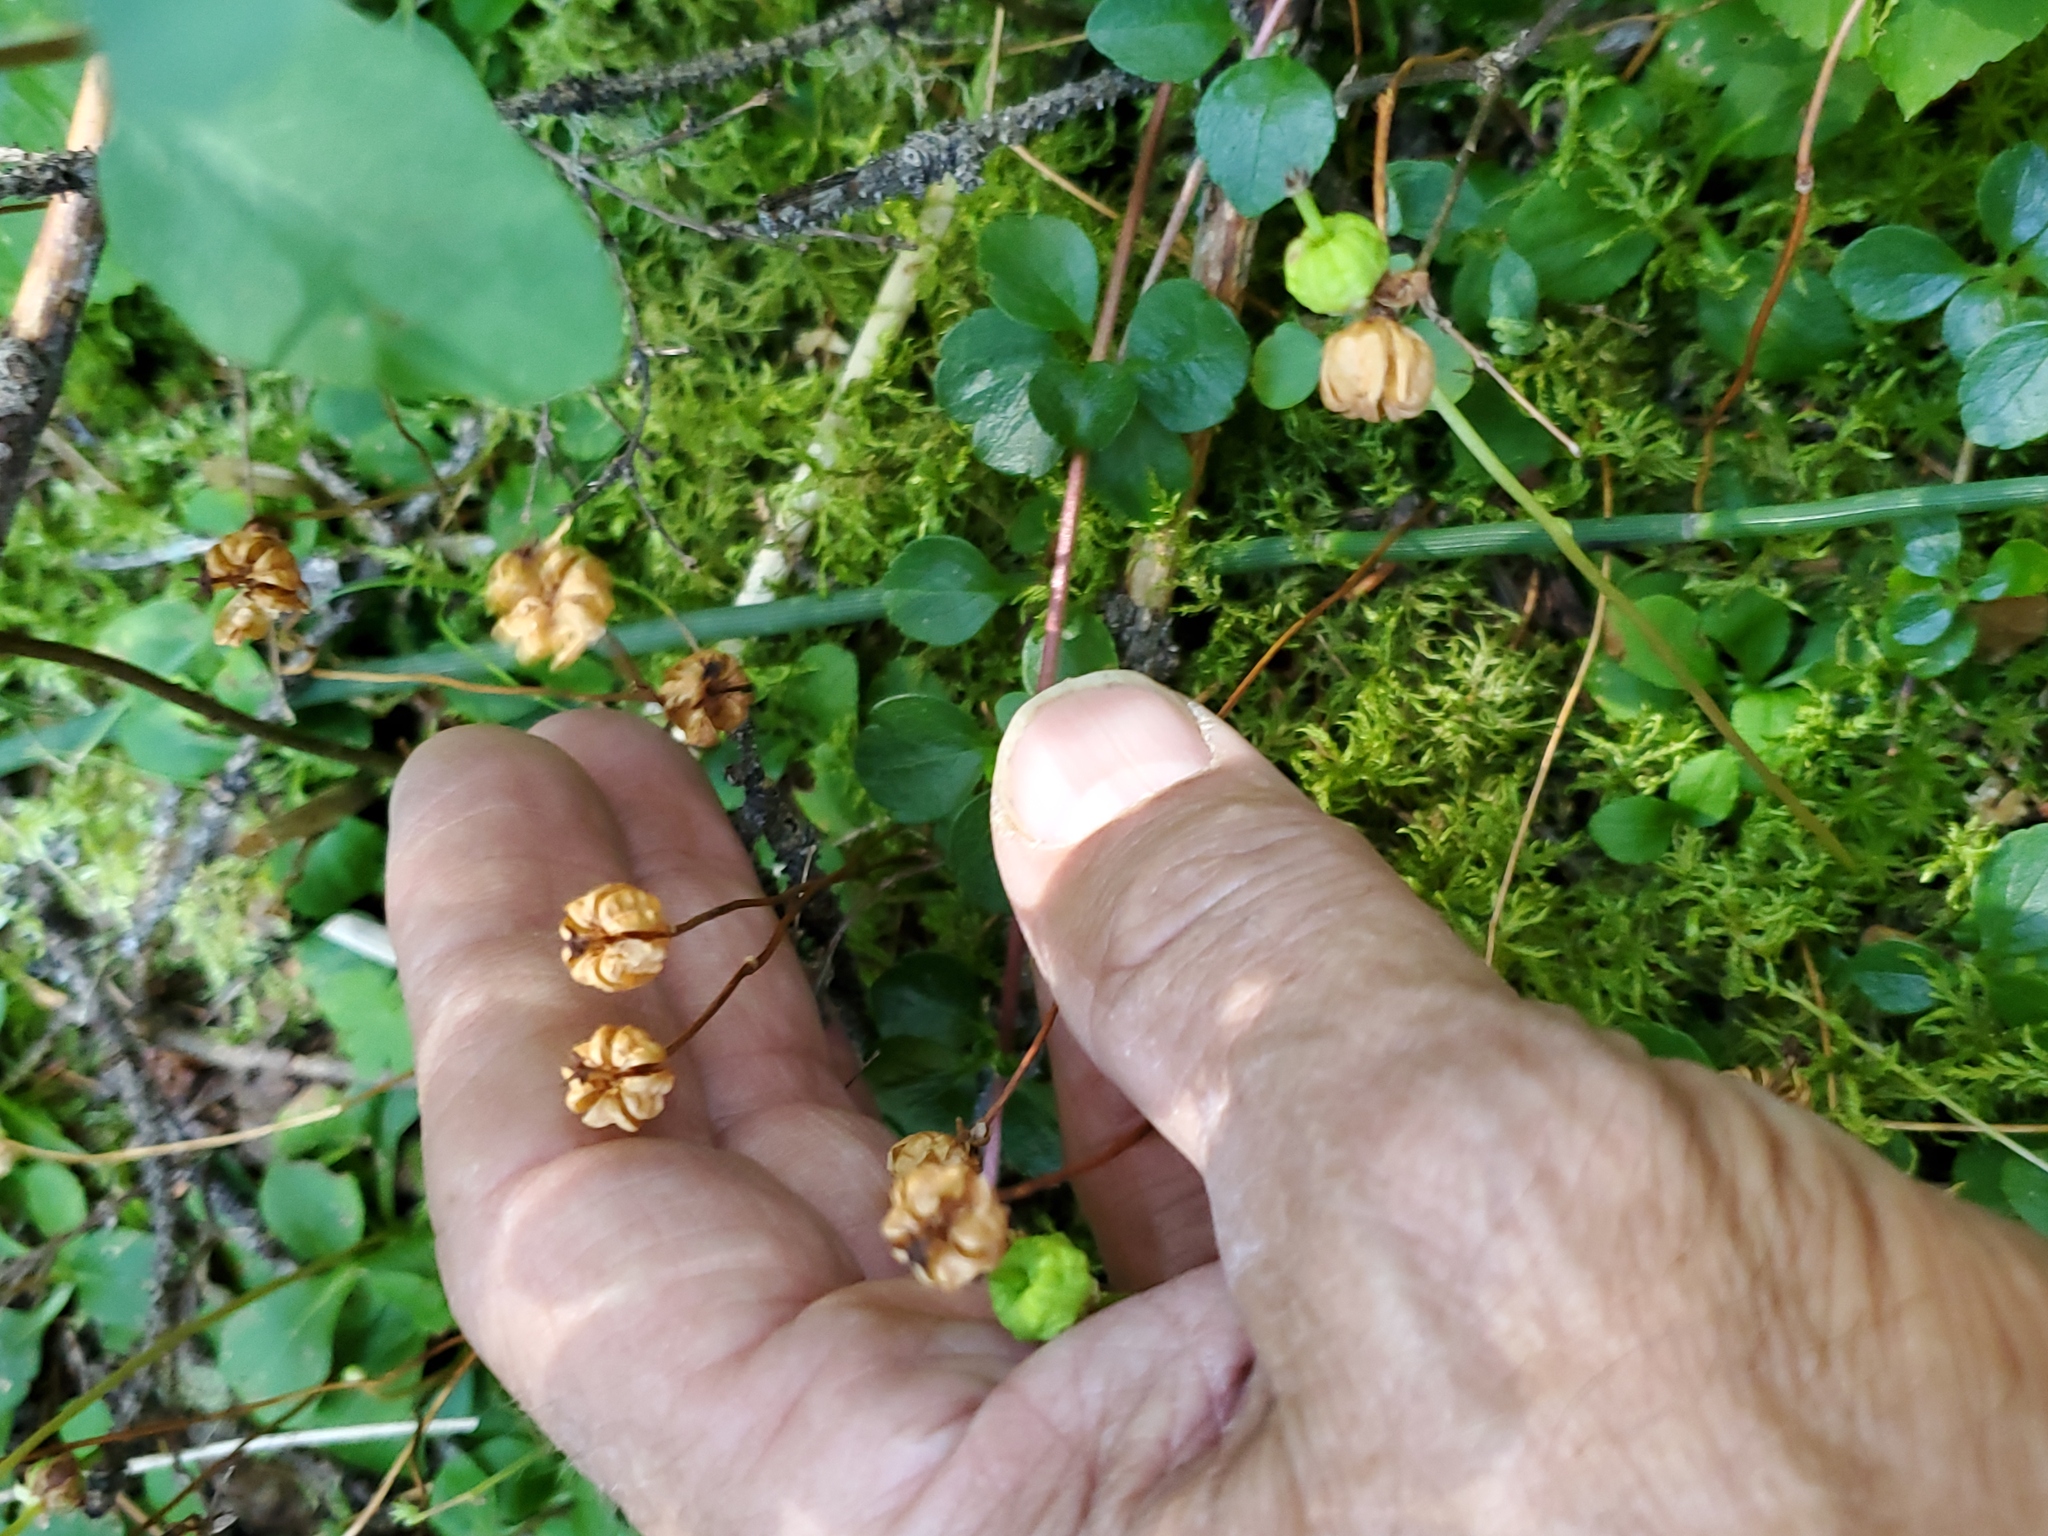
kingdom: Plantae
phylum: Tracheophyta
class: Magnoliopsida
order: Ericales
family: Ericaceae
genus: Moneses
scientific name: Moneses uniflora
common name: One-flowered wintergreen
